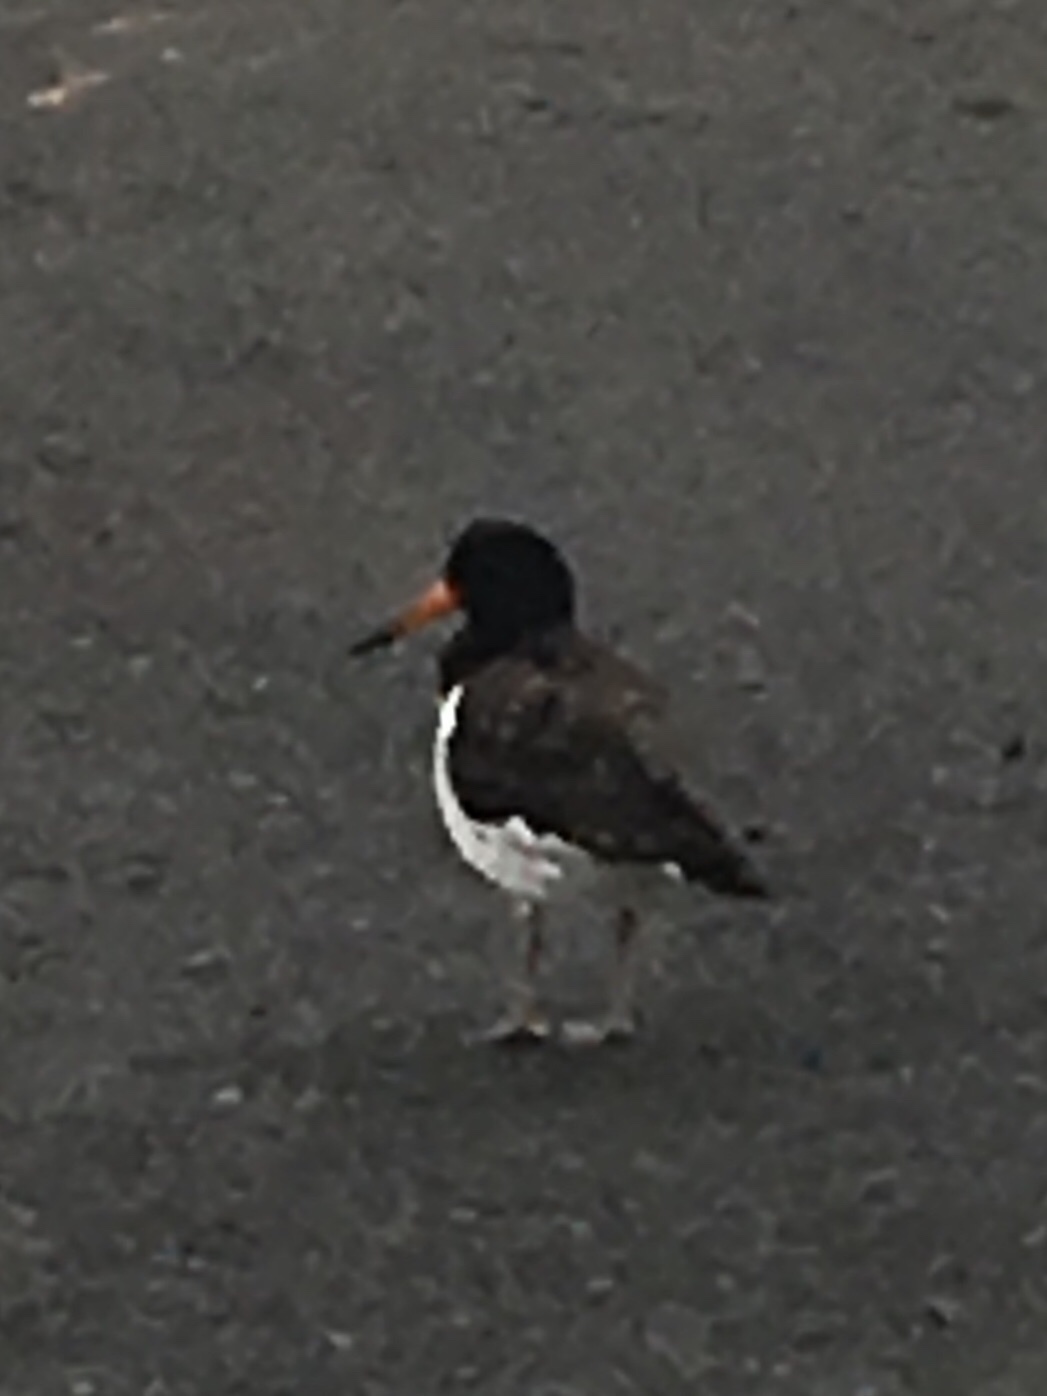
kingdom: Animalia
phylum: Chordata
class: Aves
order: Charadriiformes
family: Haematopodidae
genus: Haematopus
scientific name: Haematopus ostralegus
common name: Eurasian oystercatcher
